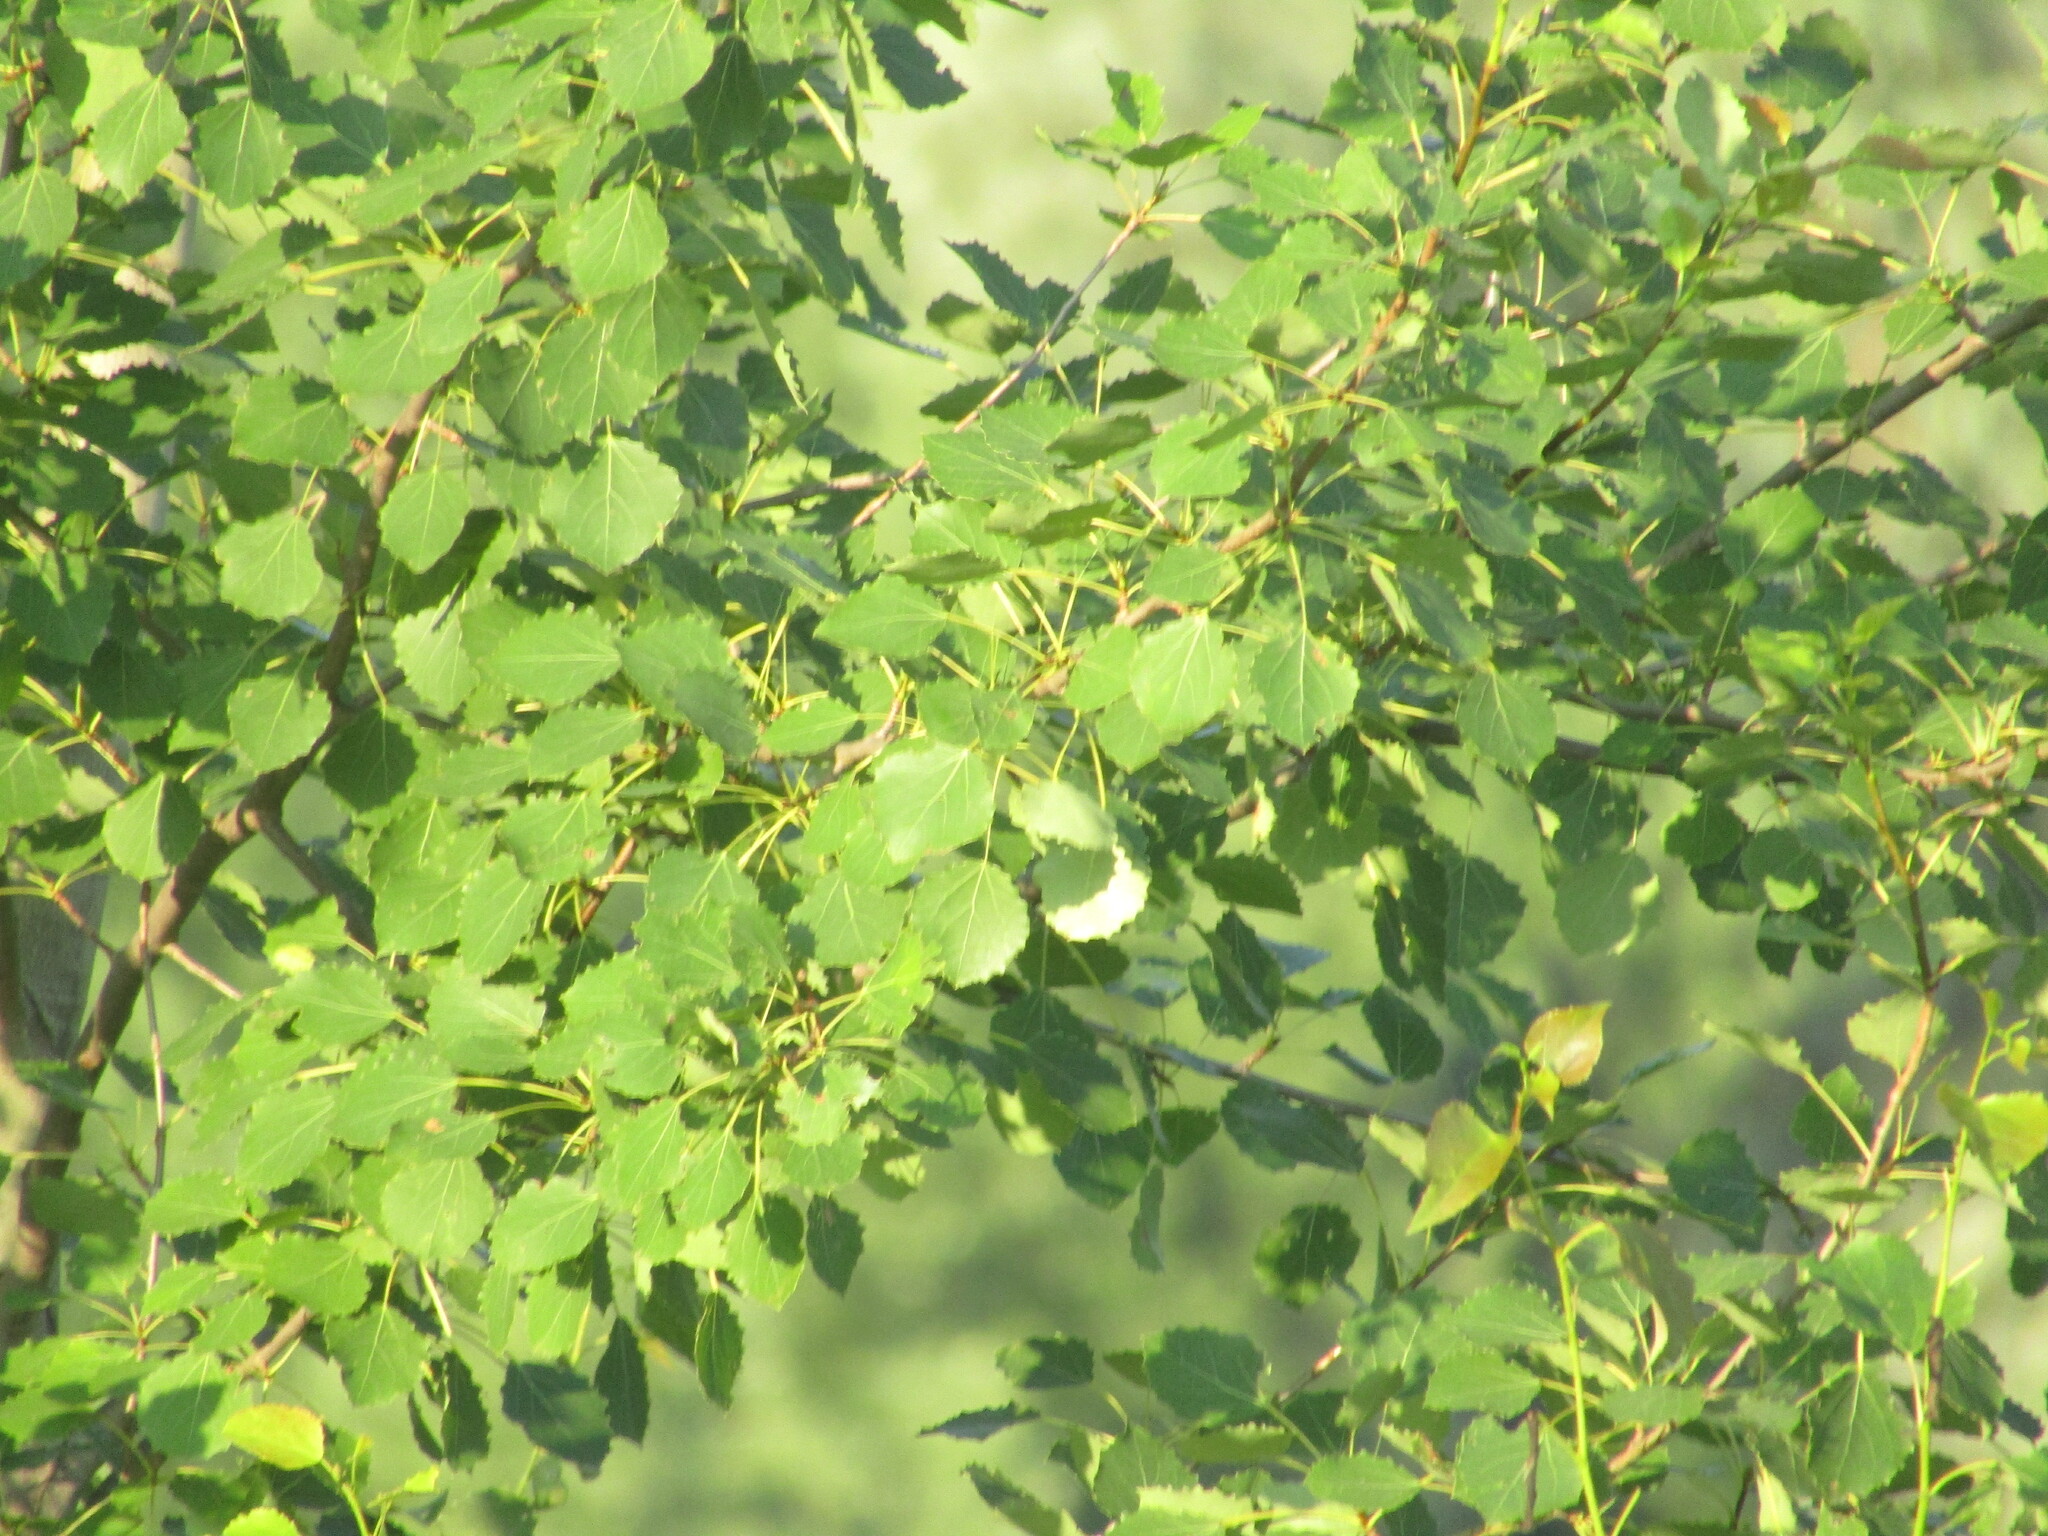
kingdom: Plantae
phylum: Tracheophyta
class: Magnoliopsida
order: Malpighiales
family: Salicaceae
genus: Populus
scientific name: Populus tremula
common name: European aspen
